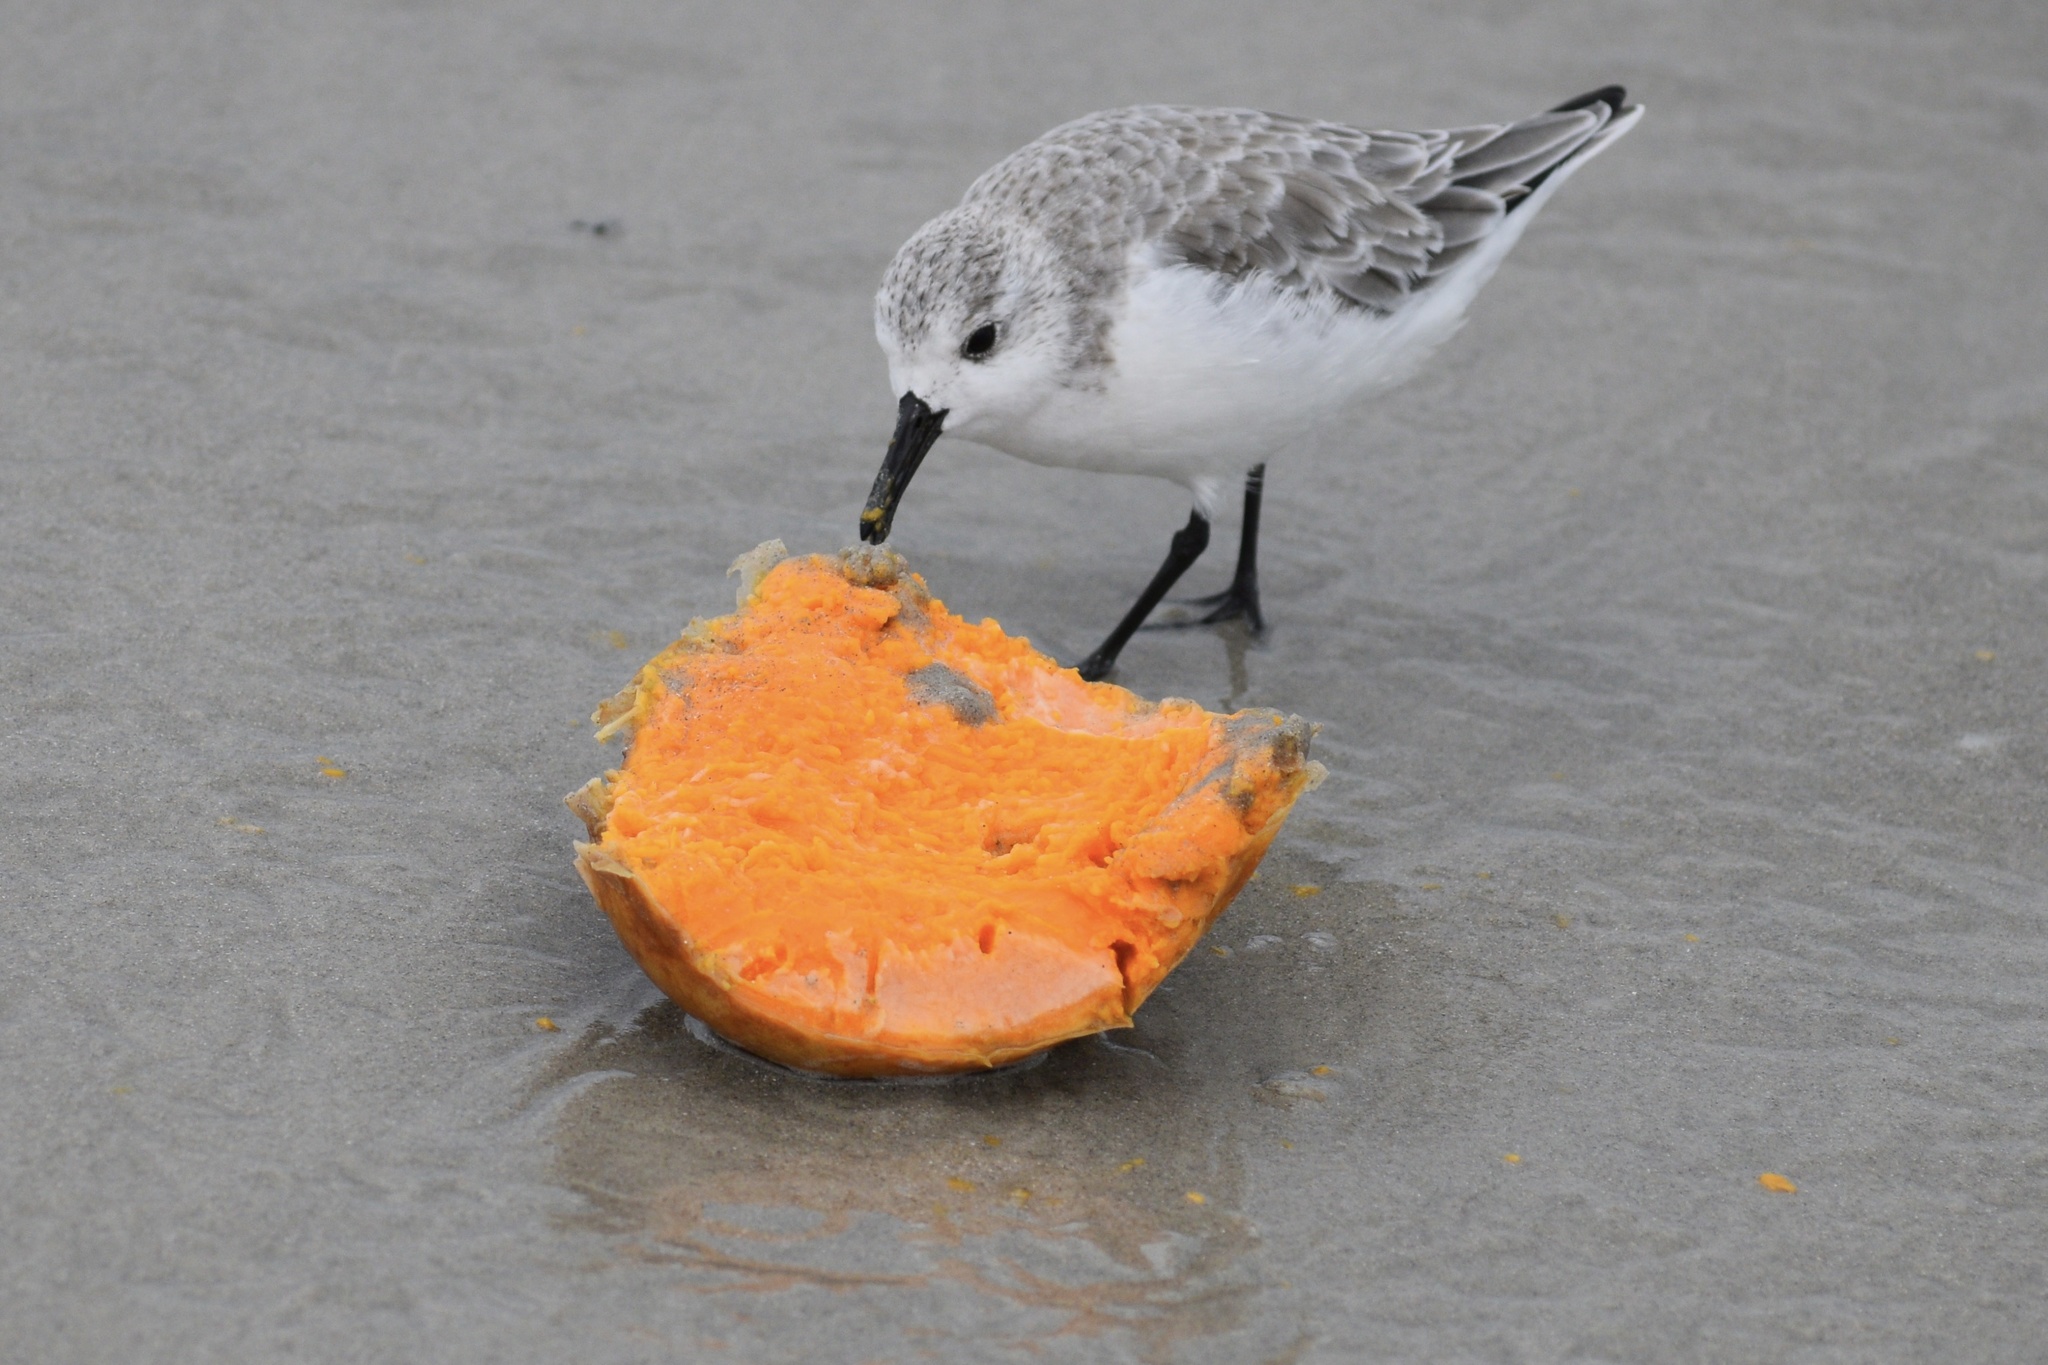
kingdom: Animalia
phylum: Chordata
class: Aves
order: Charadriiformes
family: Scolopacidae
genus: Calidris
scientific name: Calidris alba
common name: Sanderling
